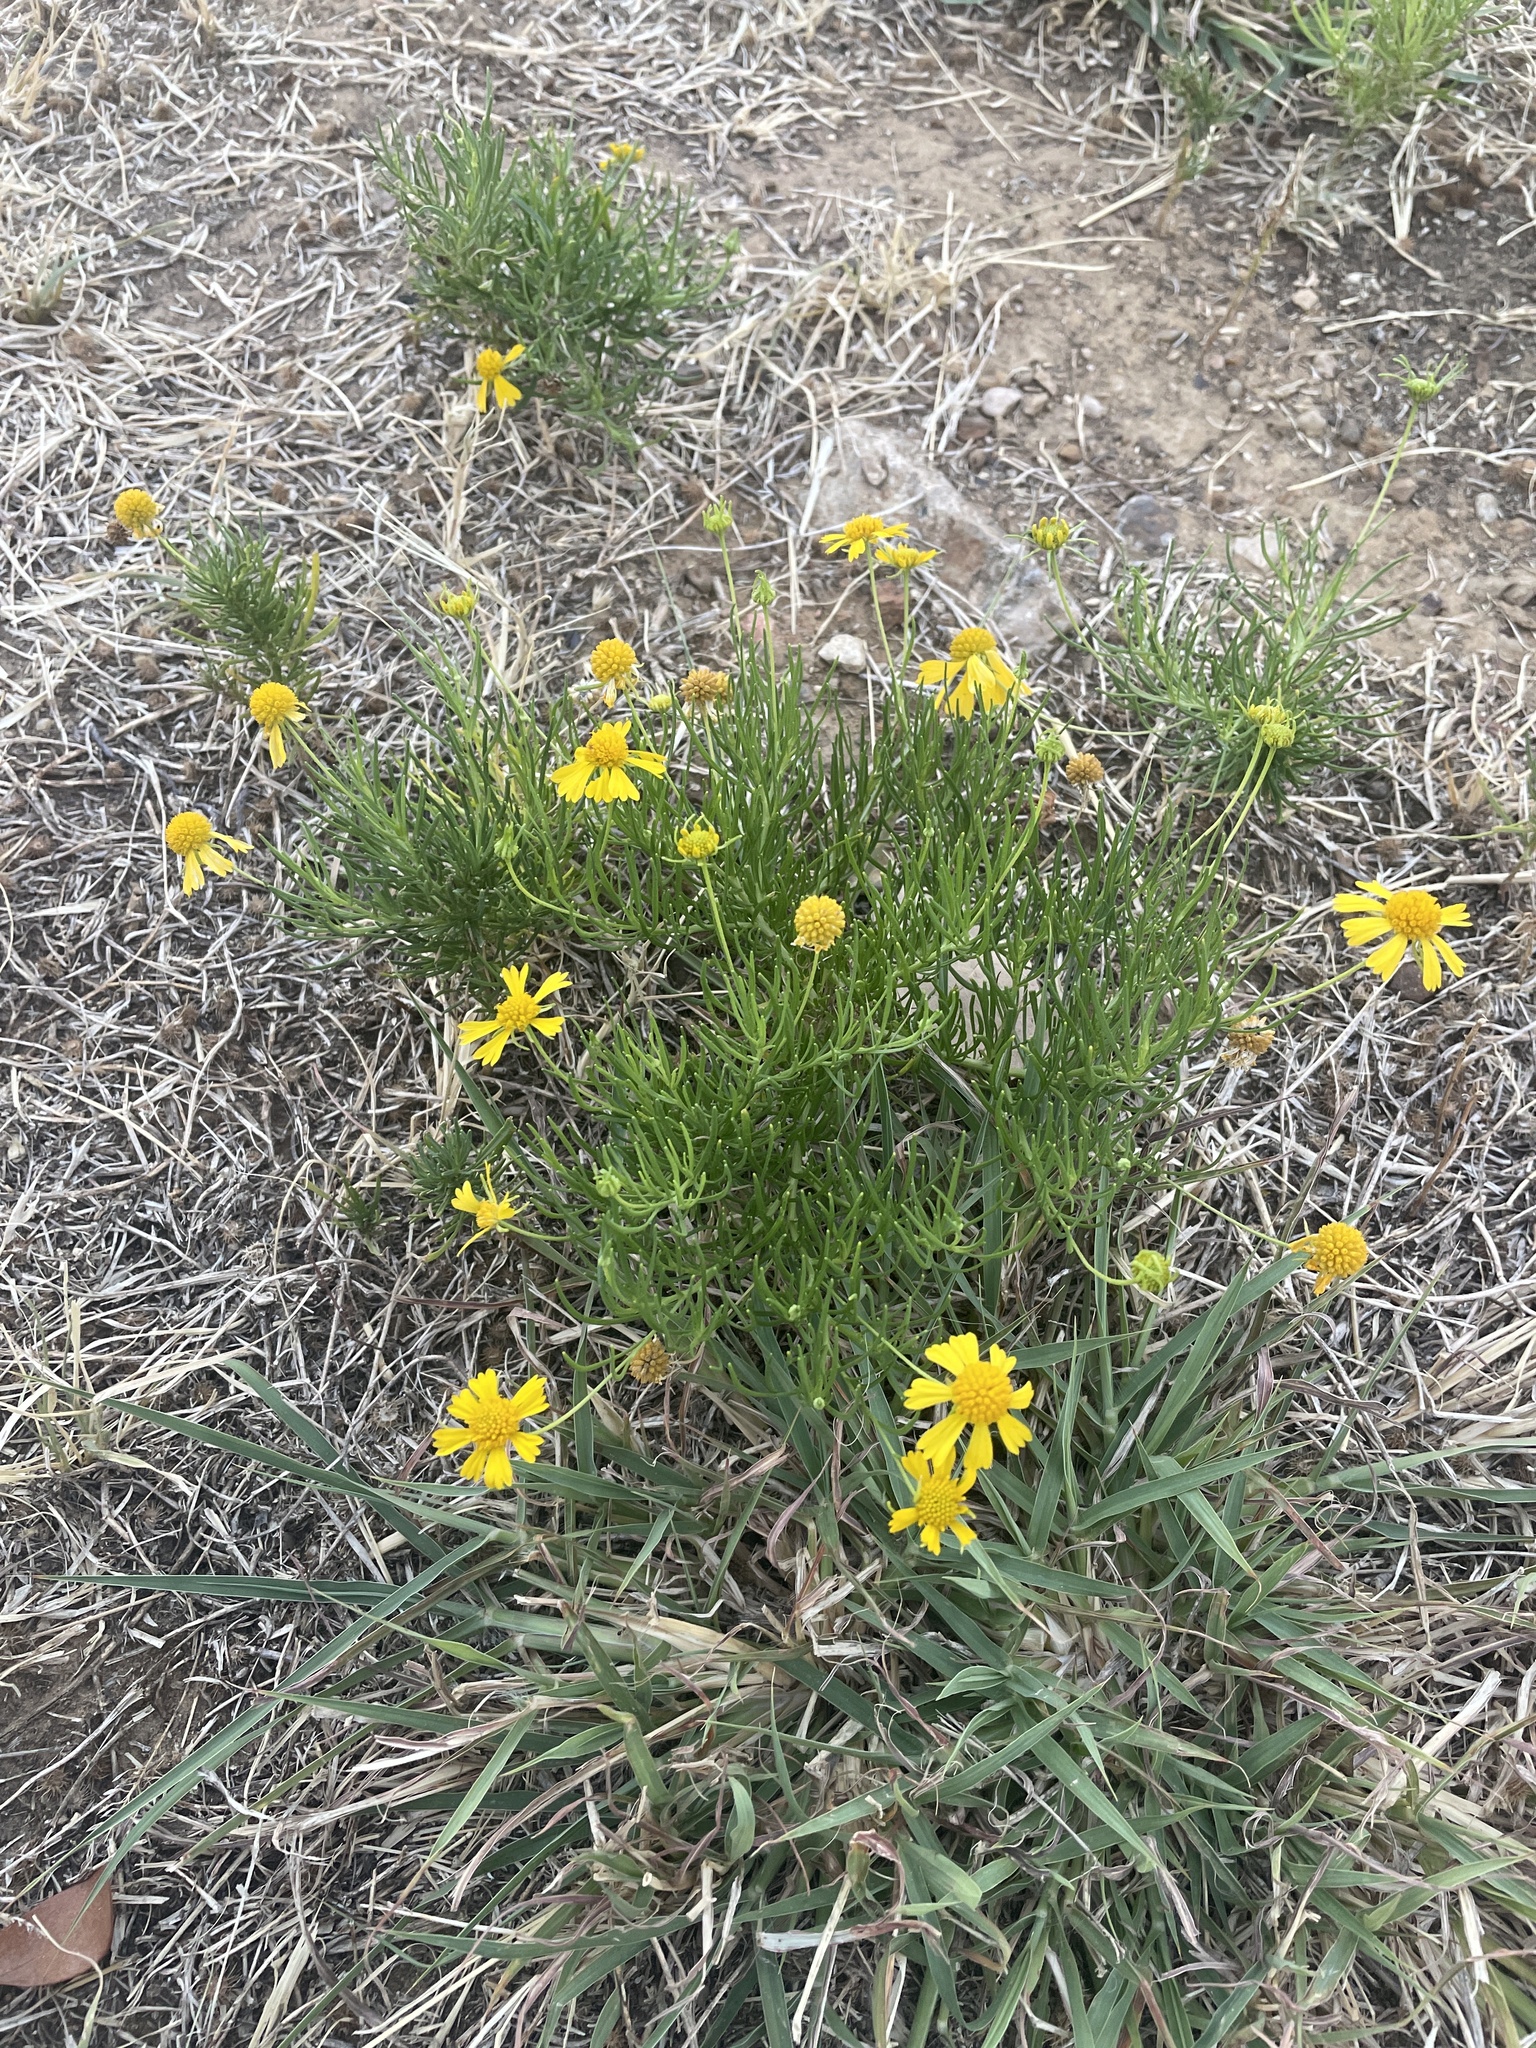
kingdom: Plantae
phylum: Tracheophyta
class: Magnoliopsida
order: Asterales
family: Asteraceae
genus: Helenium
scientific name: Helenium amarum
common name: Bitter sneezeweed
